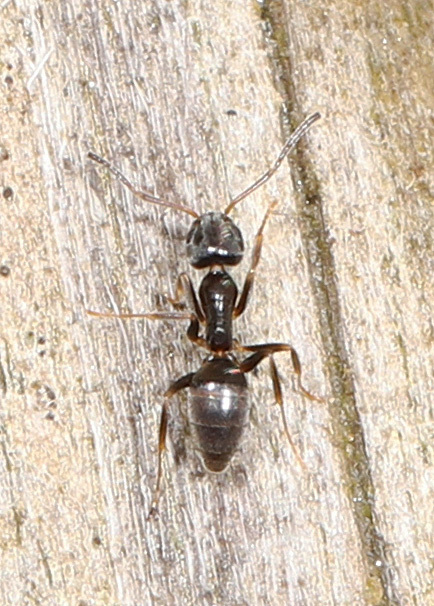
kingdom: Animalia
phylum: Arthropoda
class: Insecta
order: Hymenoptera
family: Formicidae
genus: Tapinoma
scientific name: Tapinoma sessile
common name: Odorous house ant
